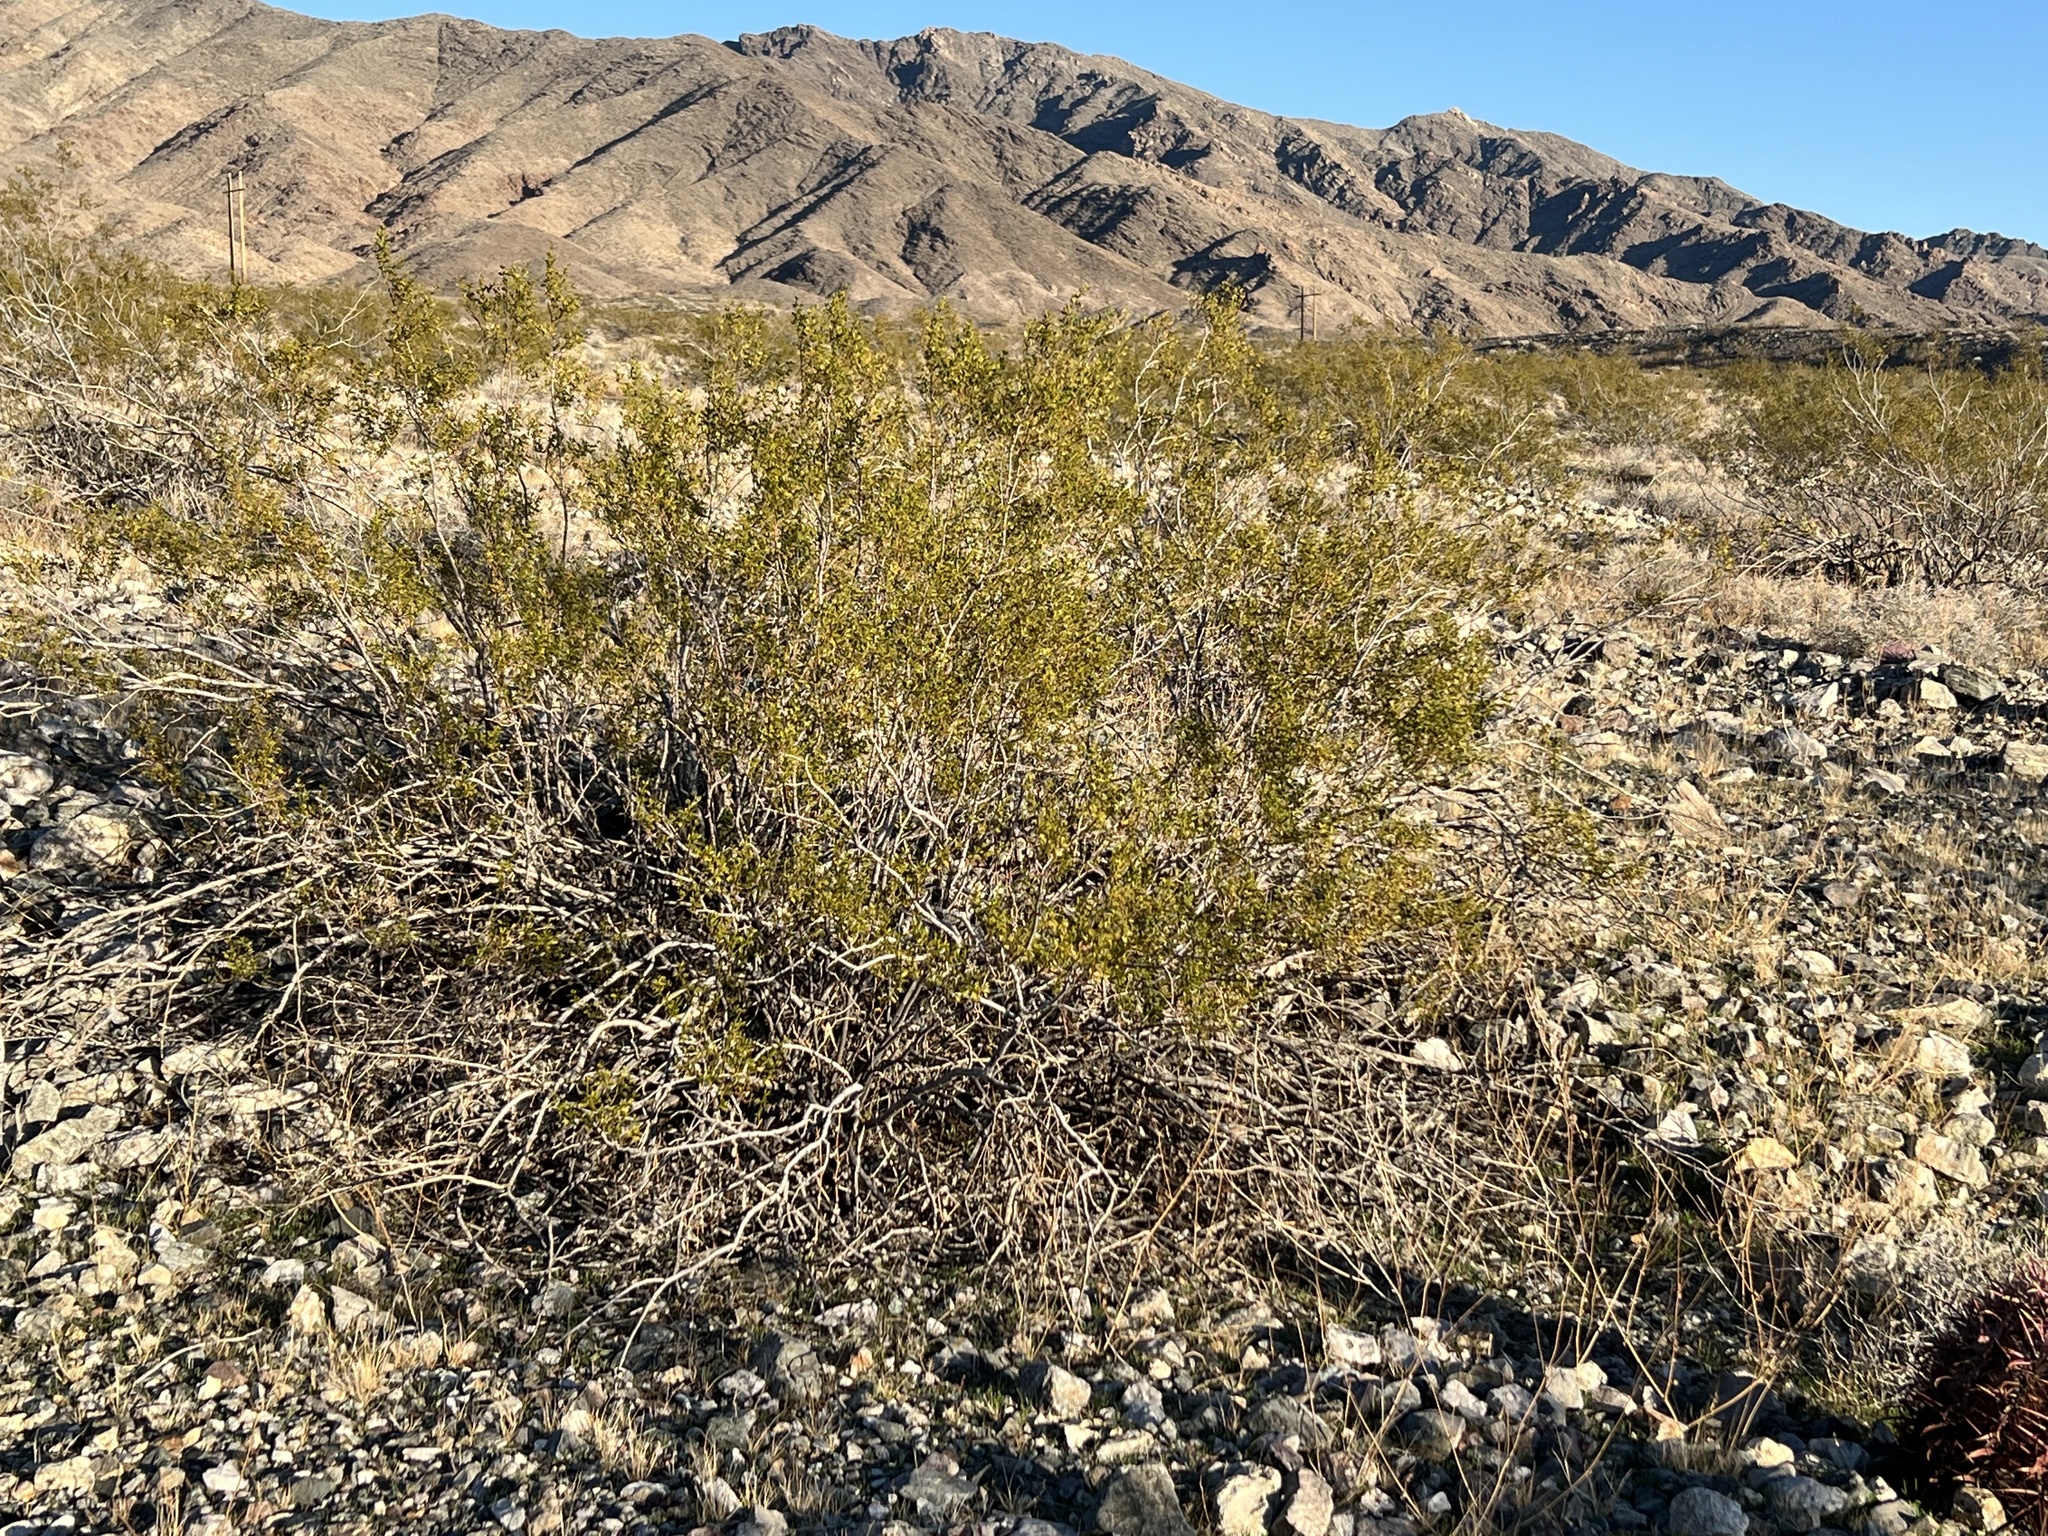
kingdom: Plantae
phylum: Tracheophyta
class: Magnoliopsida
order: Zygophyllales
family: Zygophyllaceae
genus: Larrea
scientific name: Larrea tridentata
